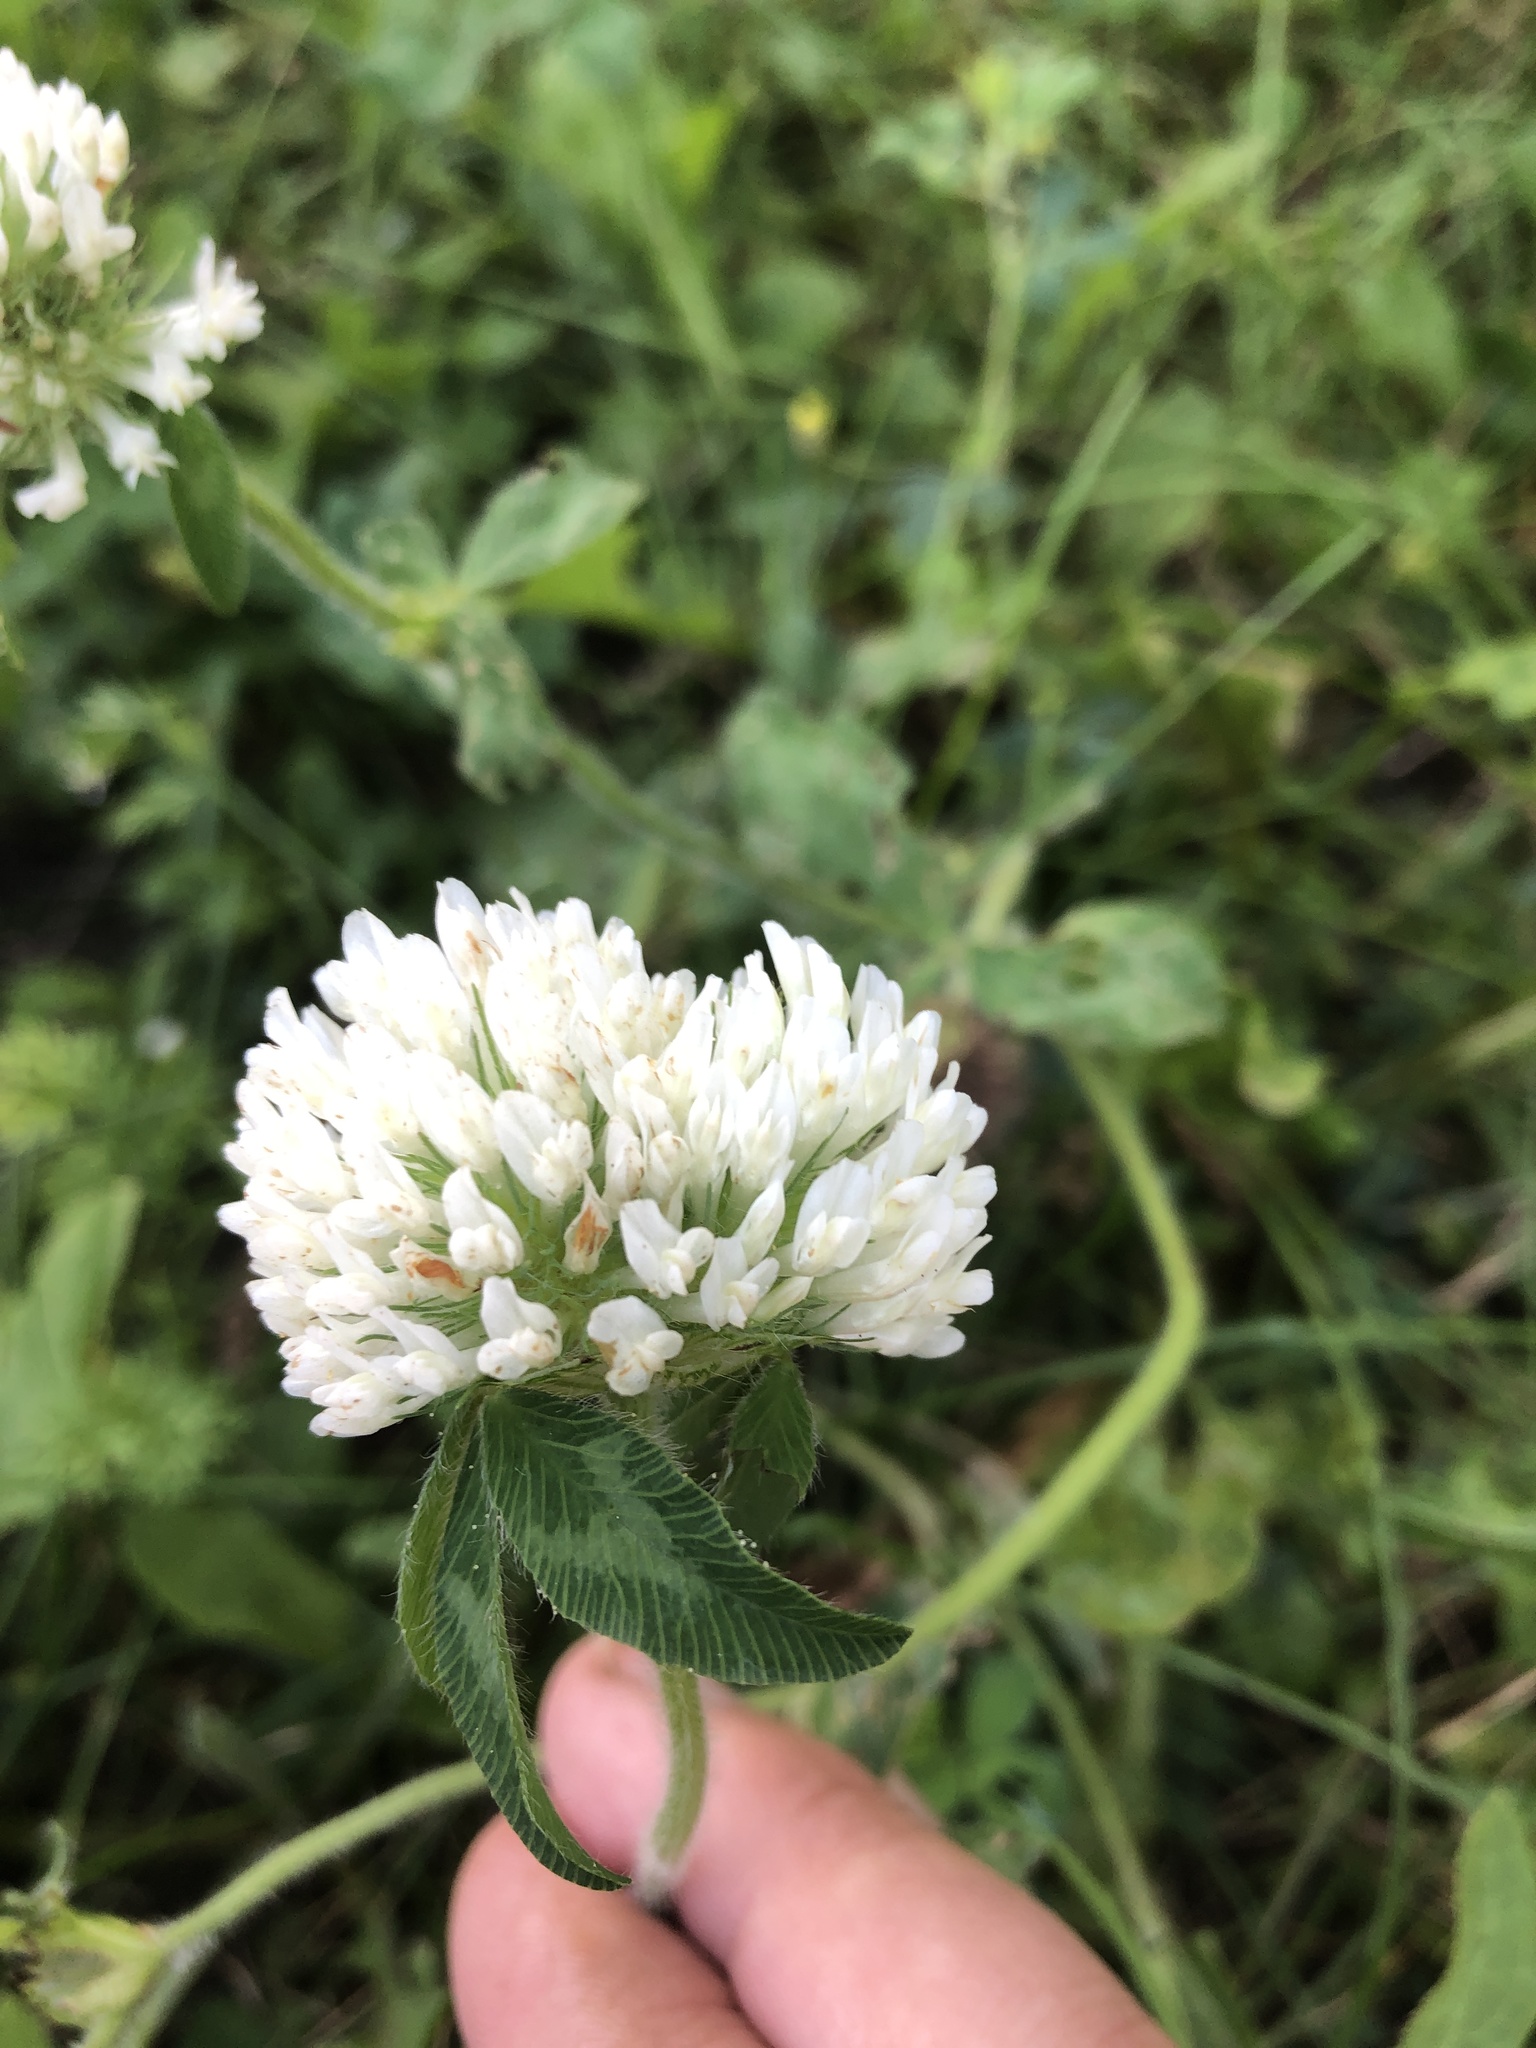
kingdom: Plantae
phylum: Tracheophyta
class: Magnoliopsida
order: Fabales
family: Fabaceae
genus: Trifolium
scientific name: Trifolium pratense
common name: Red clover
